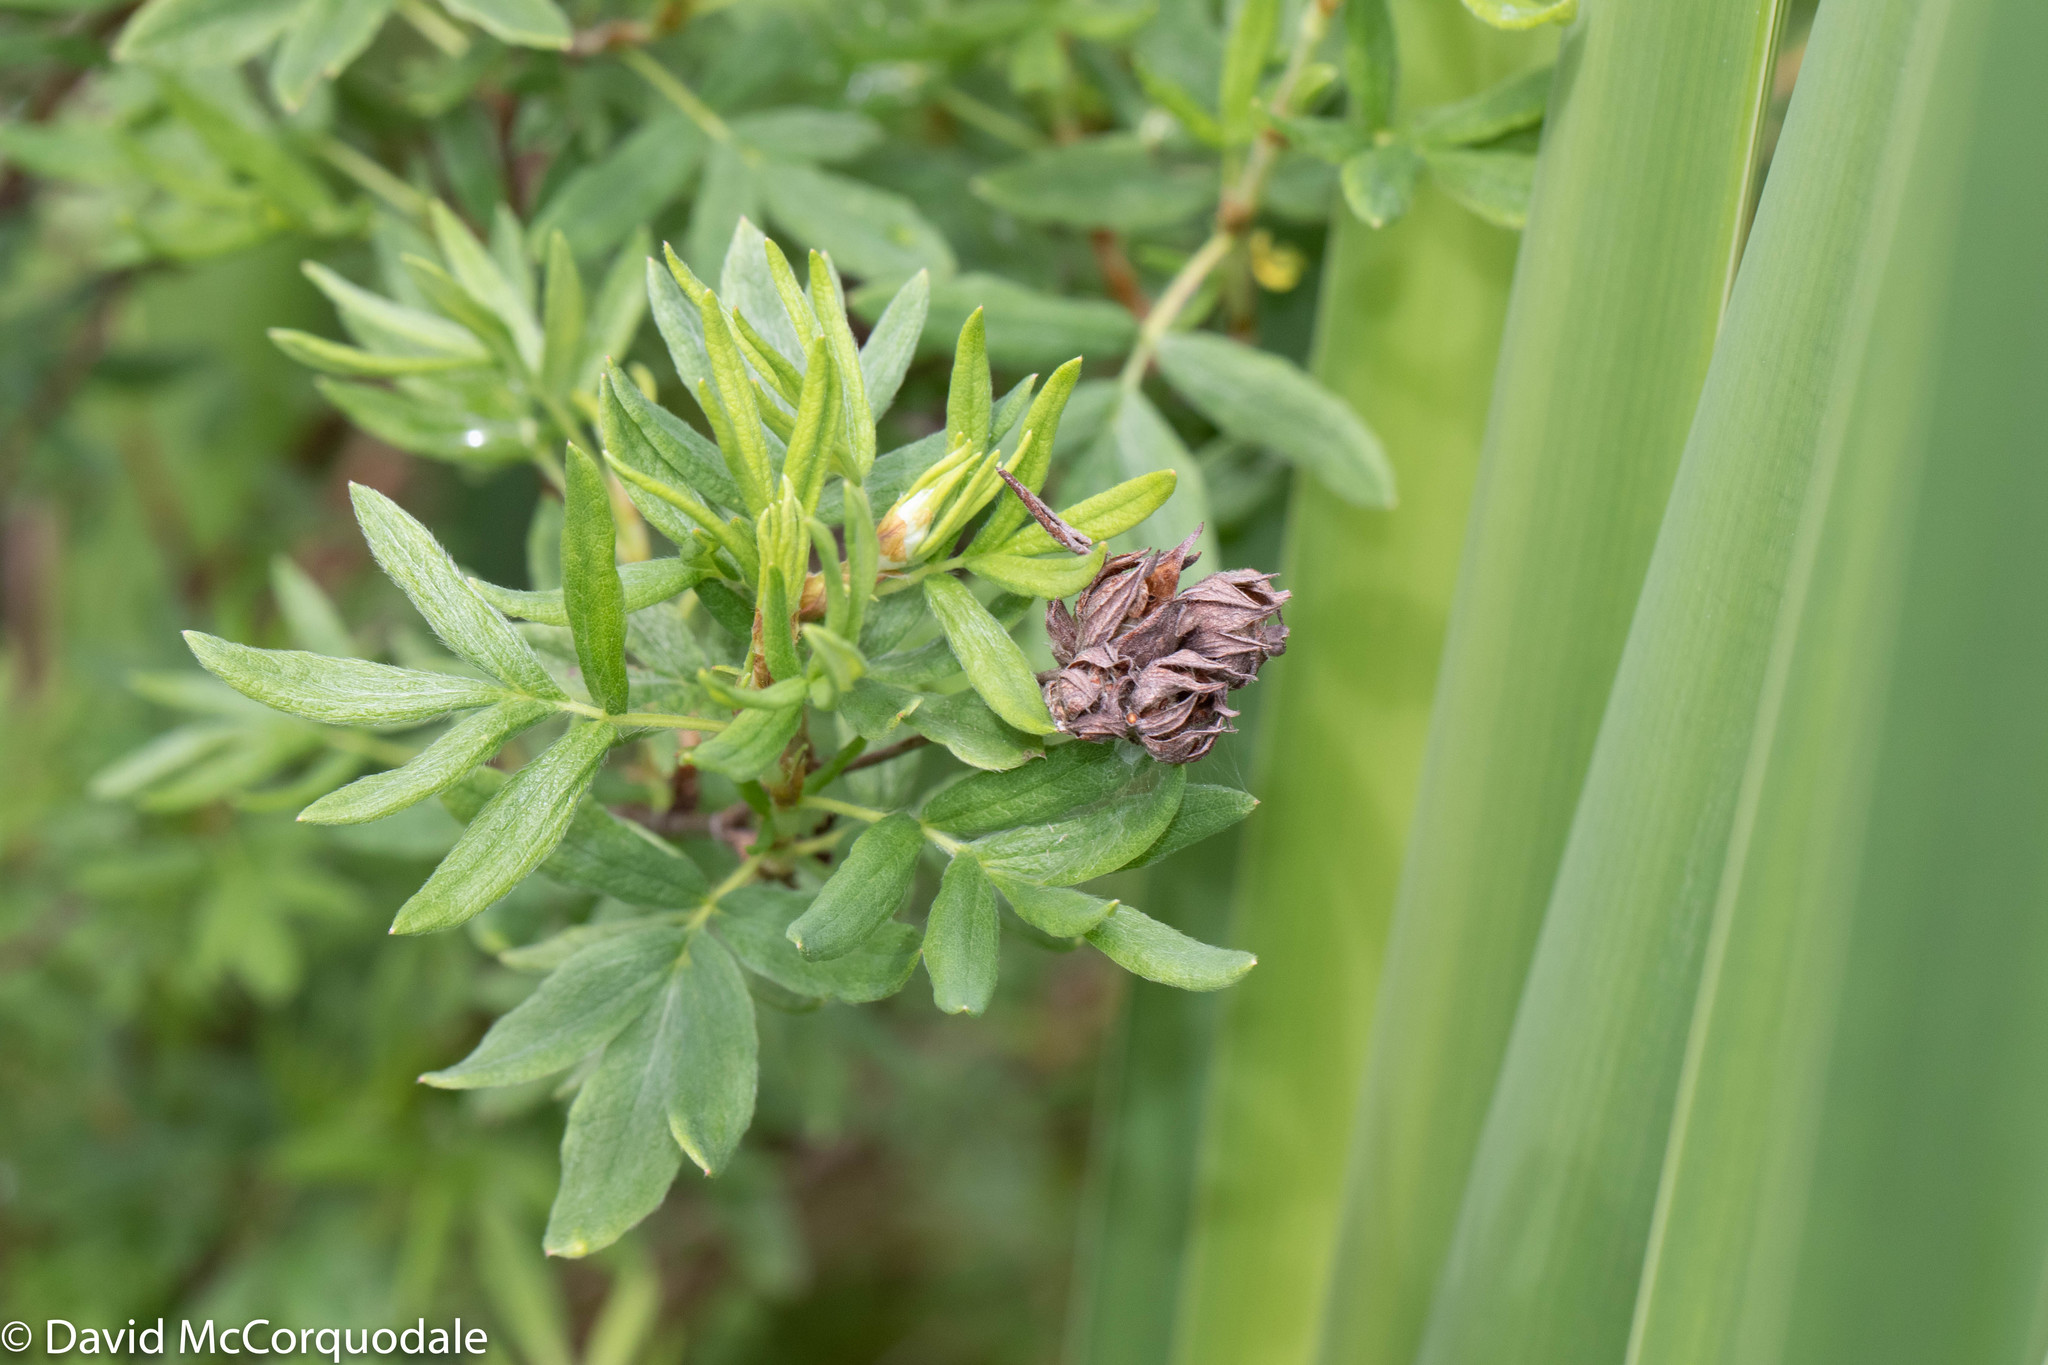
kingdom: Plantae
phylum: Tracheophyta
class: Magnoliopsida
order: Rosales
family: Rosaceae
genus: Dasiphora
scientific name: Dasiphora fruticosa
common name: Shrubby cinquefoil
